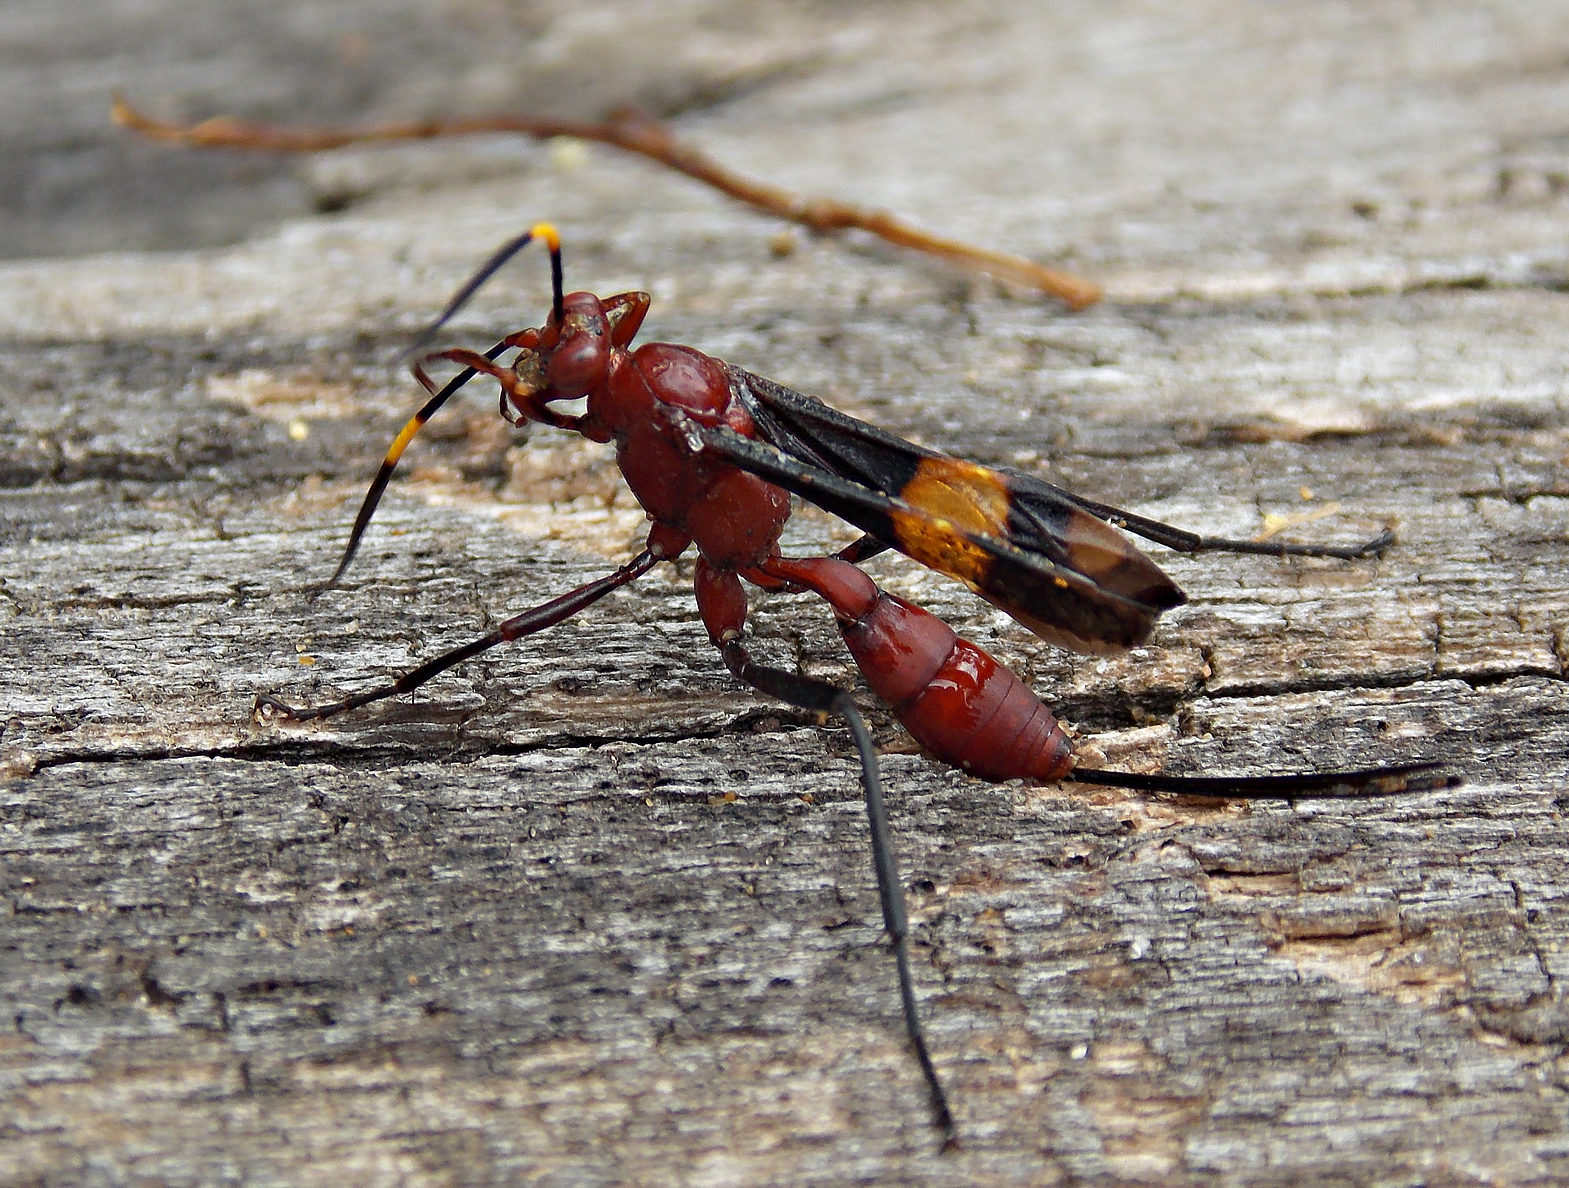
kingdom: Animalia
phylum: Arthropoda
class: Insecta
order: Hymenoptera
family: Ichneumonidae
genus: Compsocryptus
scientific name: Compsocryptus melanostigma
